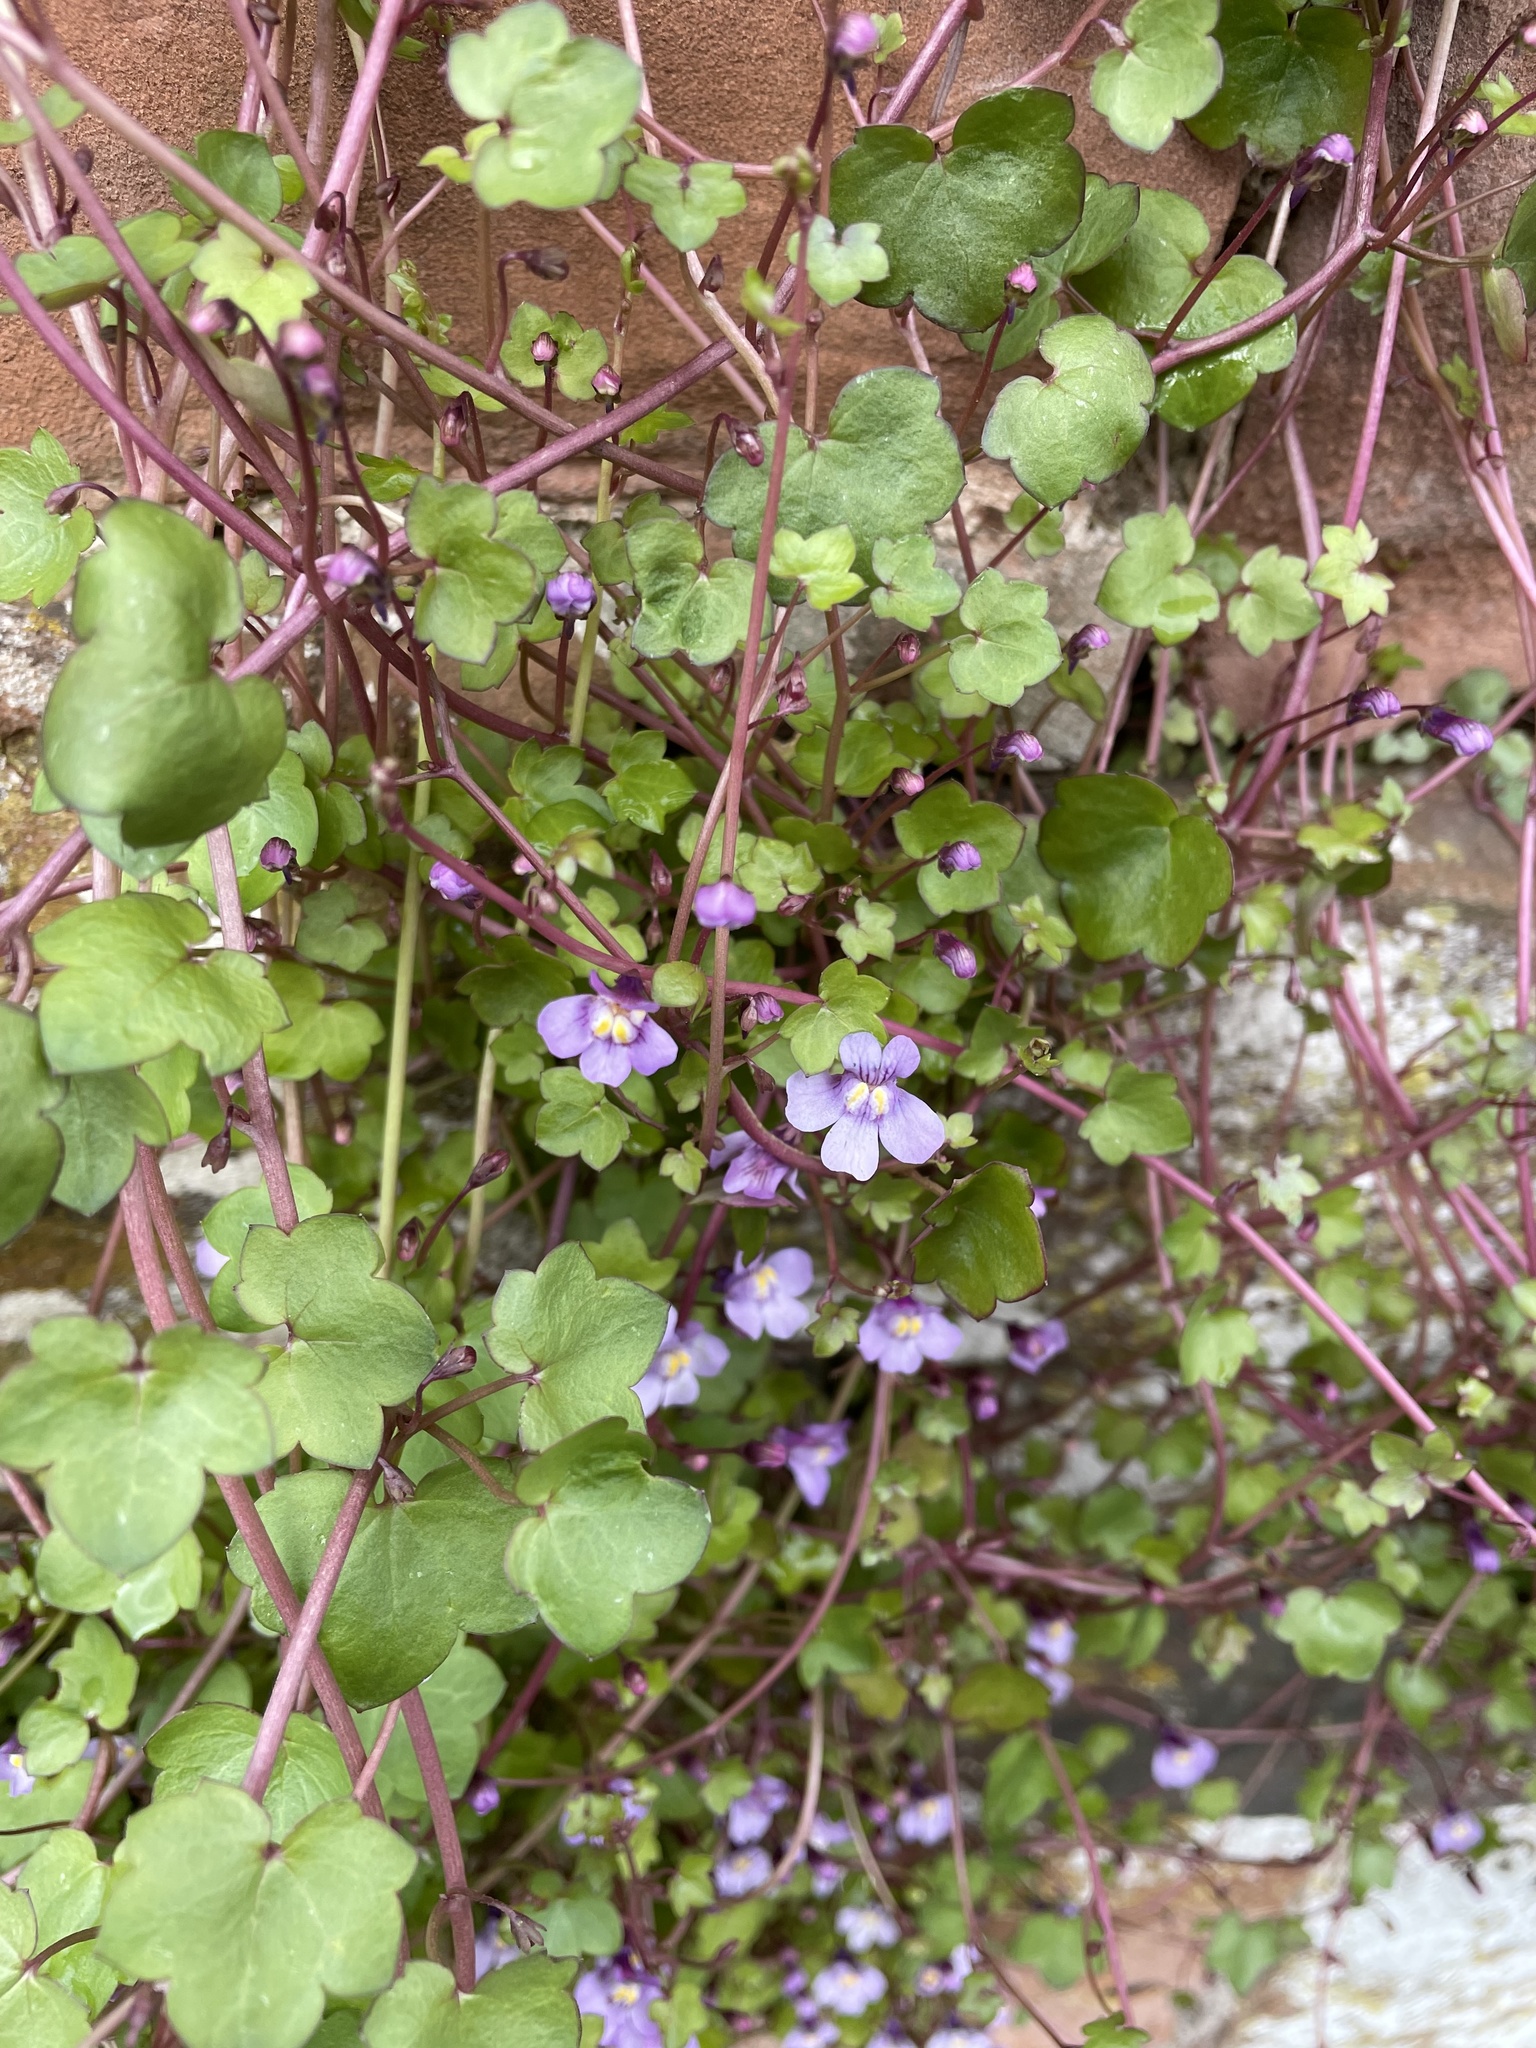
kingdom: Plantae
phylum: Tracheophyta
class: Magnoliopsida
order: Lamiales
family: Plantaginaceae
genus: Cymbalaria
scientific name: Cymbalaria muralis
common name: Ivy-leaved toadflax
